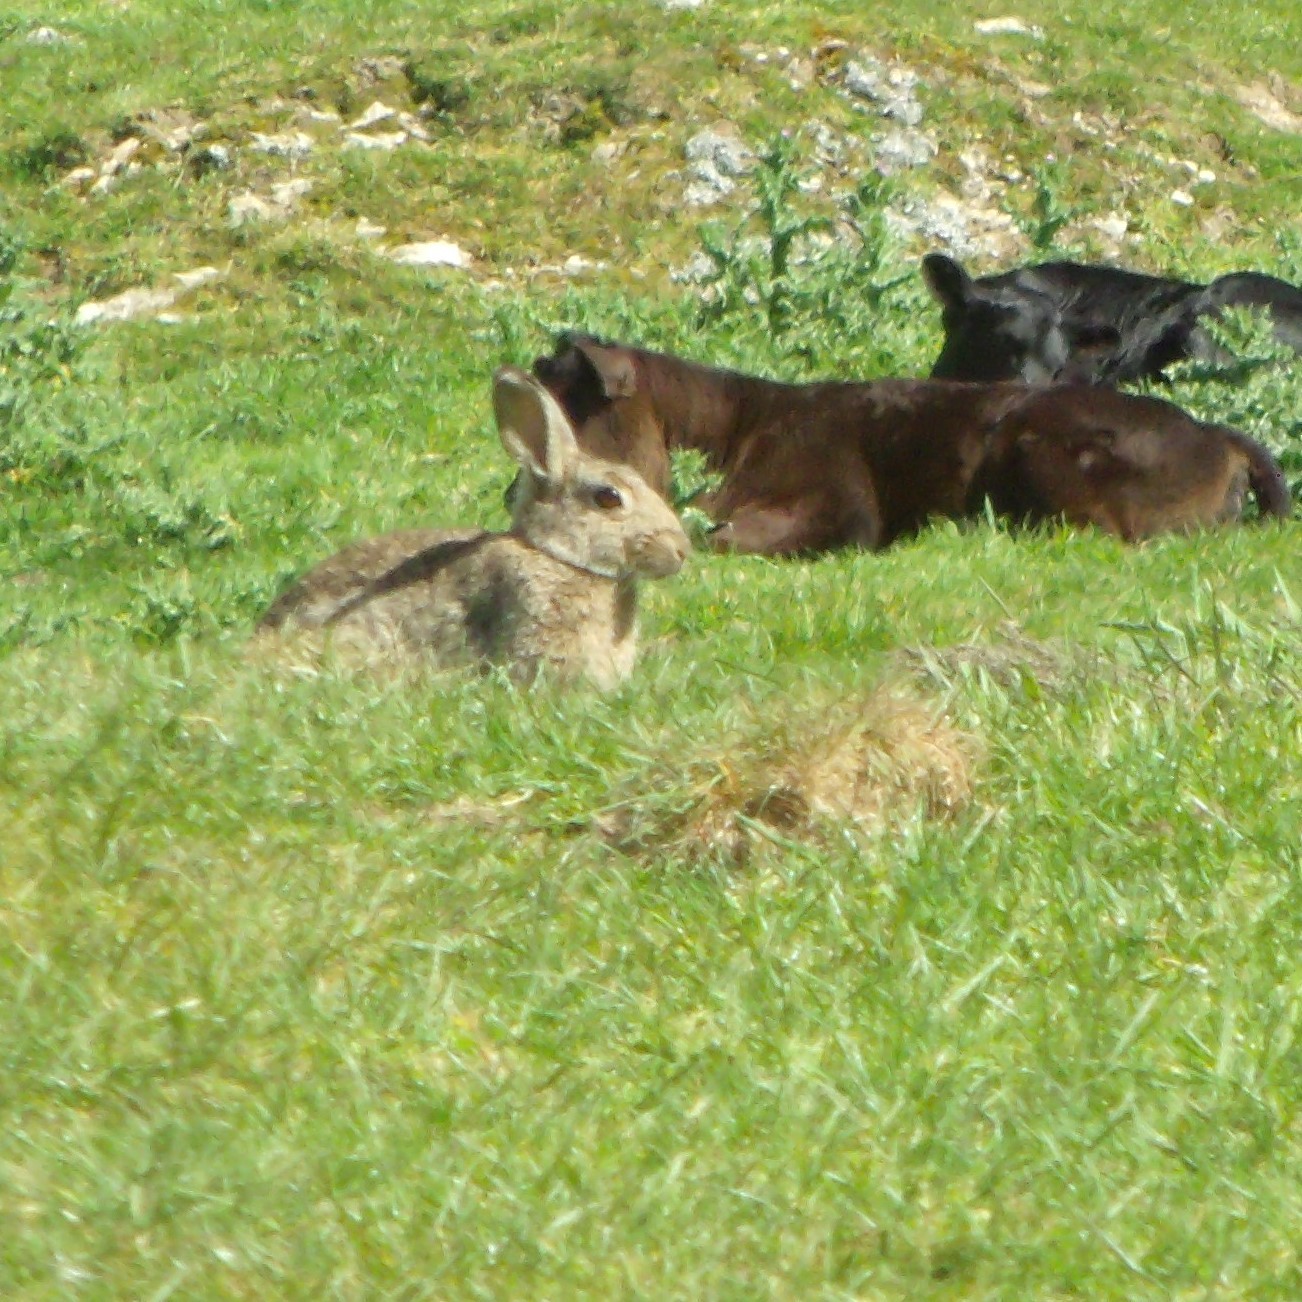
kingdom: Animalia
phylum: Chordata
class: Mammalia
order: Lagomorpha
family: Leporidae
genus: Oryctolagus
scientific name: Oryctolagus cuniculus
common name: European rabbit
